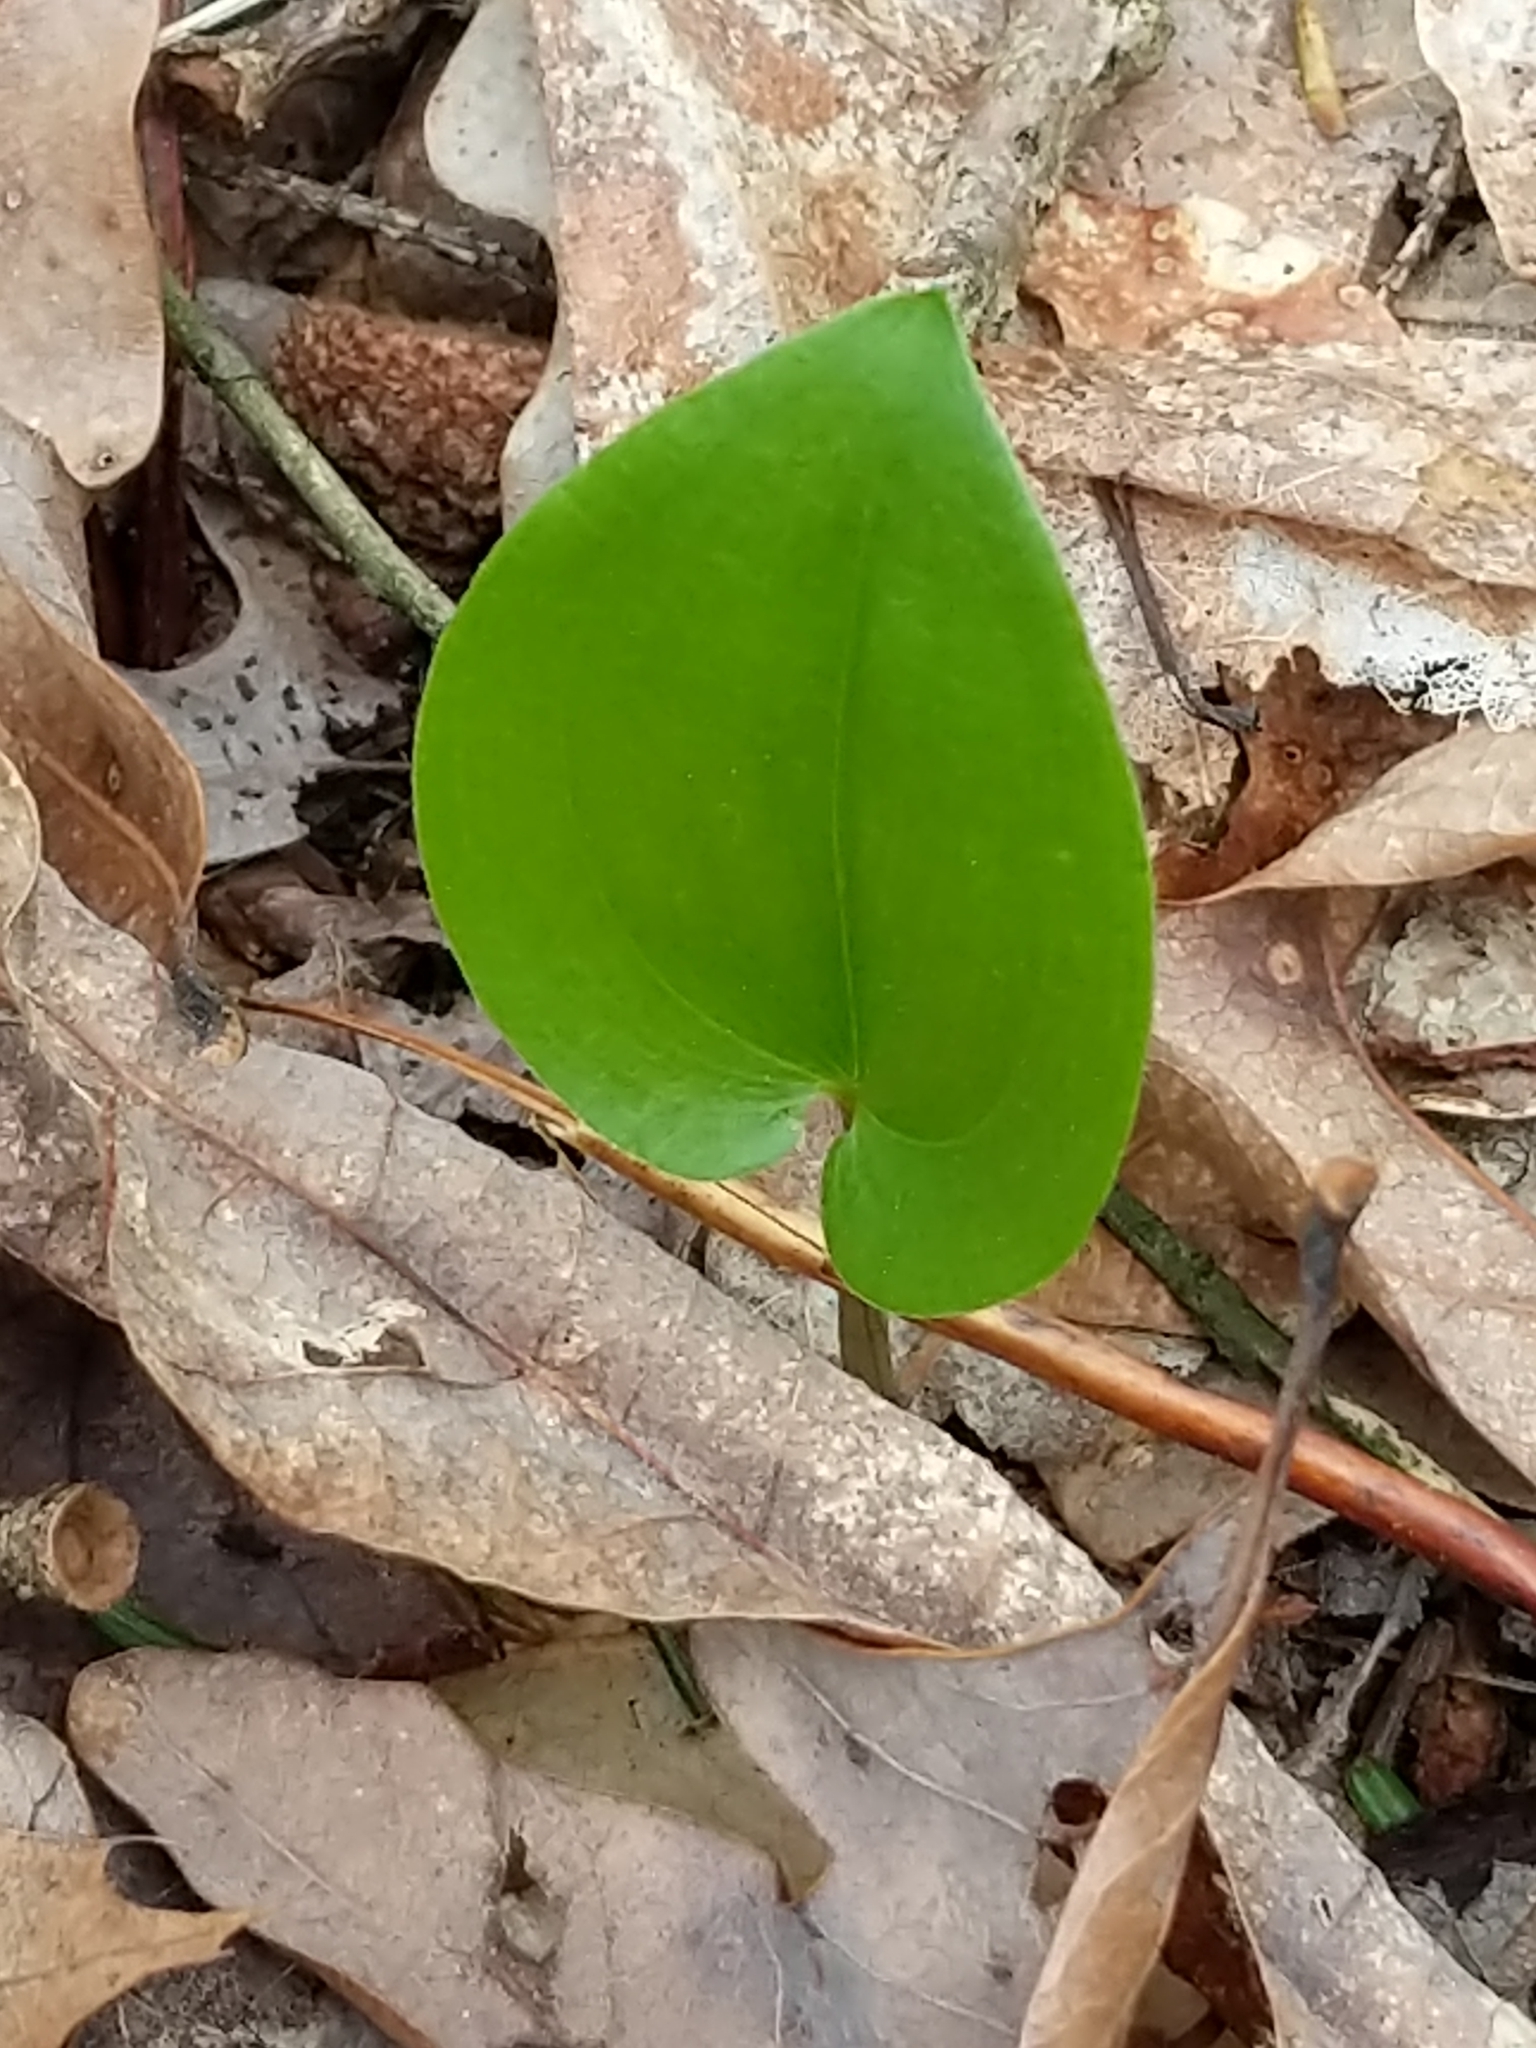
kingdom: Plantae
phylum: Tracheophyta
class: Liliopsida
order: Asparagales
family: Asparagaceae
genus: Maianthemum
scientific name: Maianthemum canadense
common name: False lily-of-the-valley
